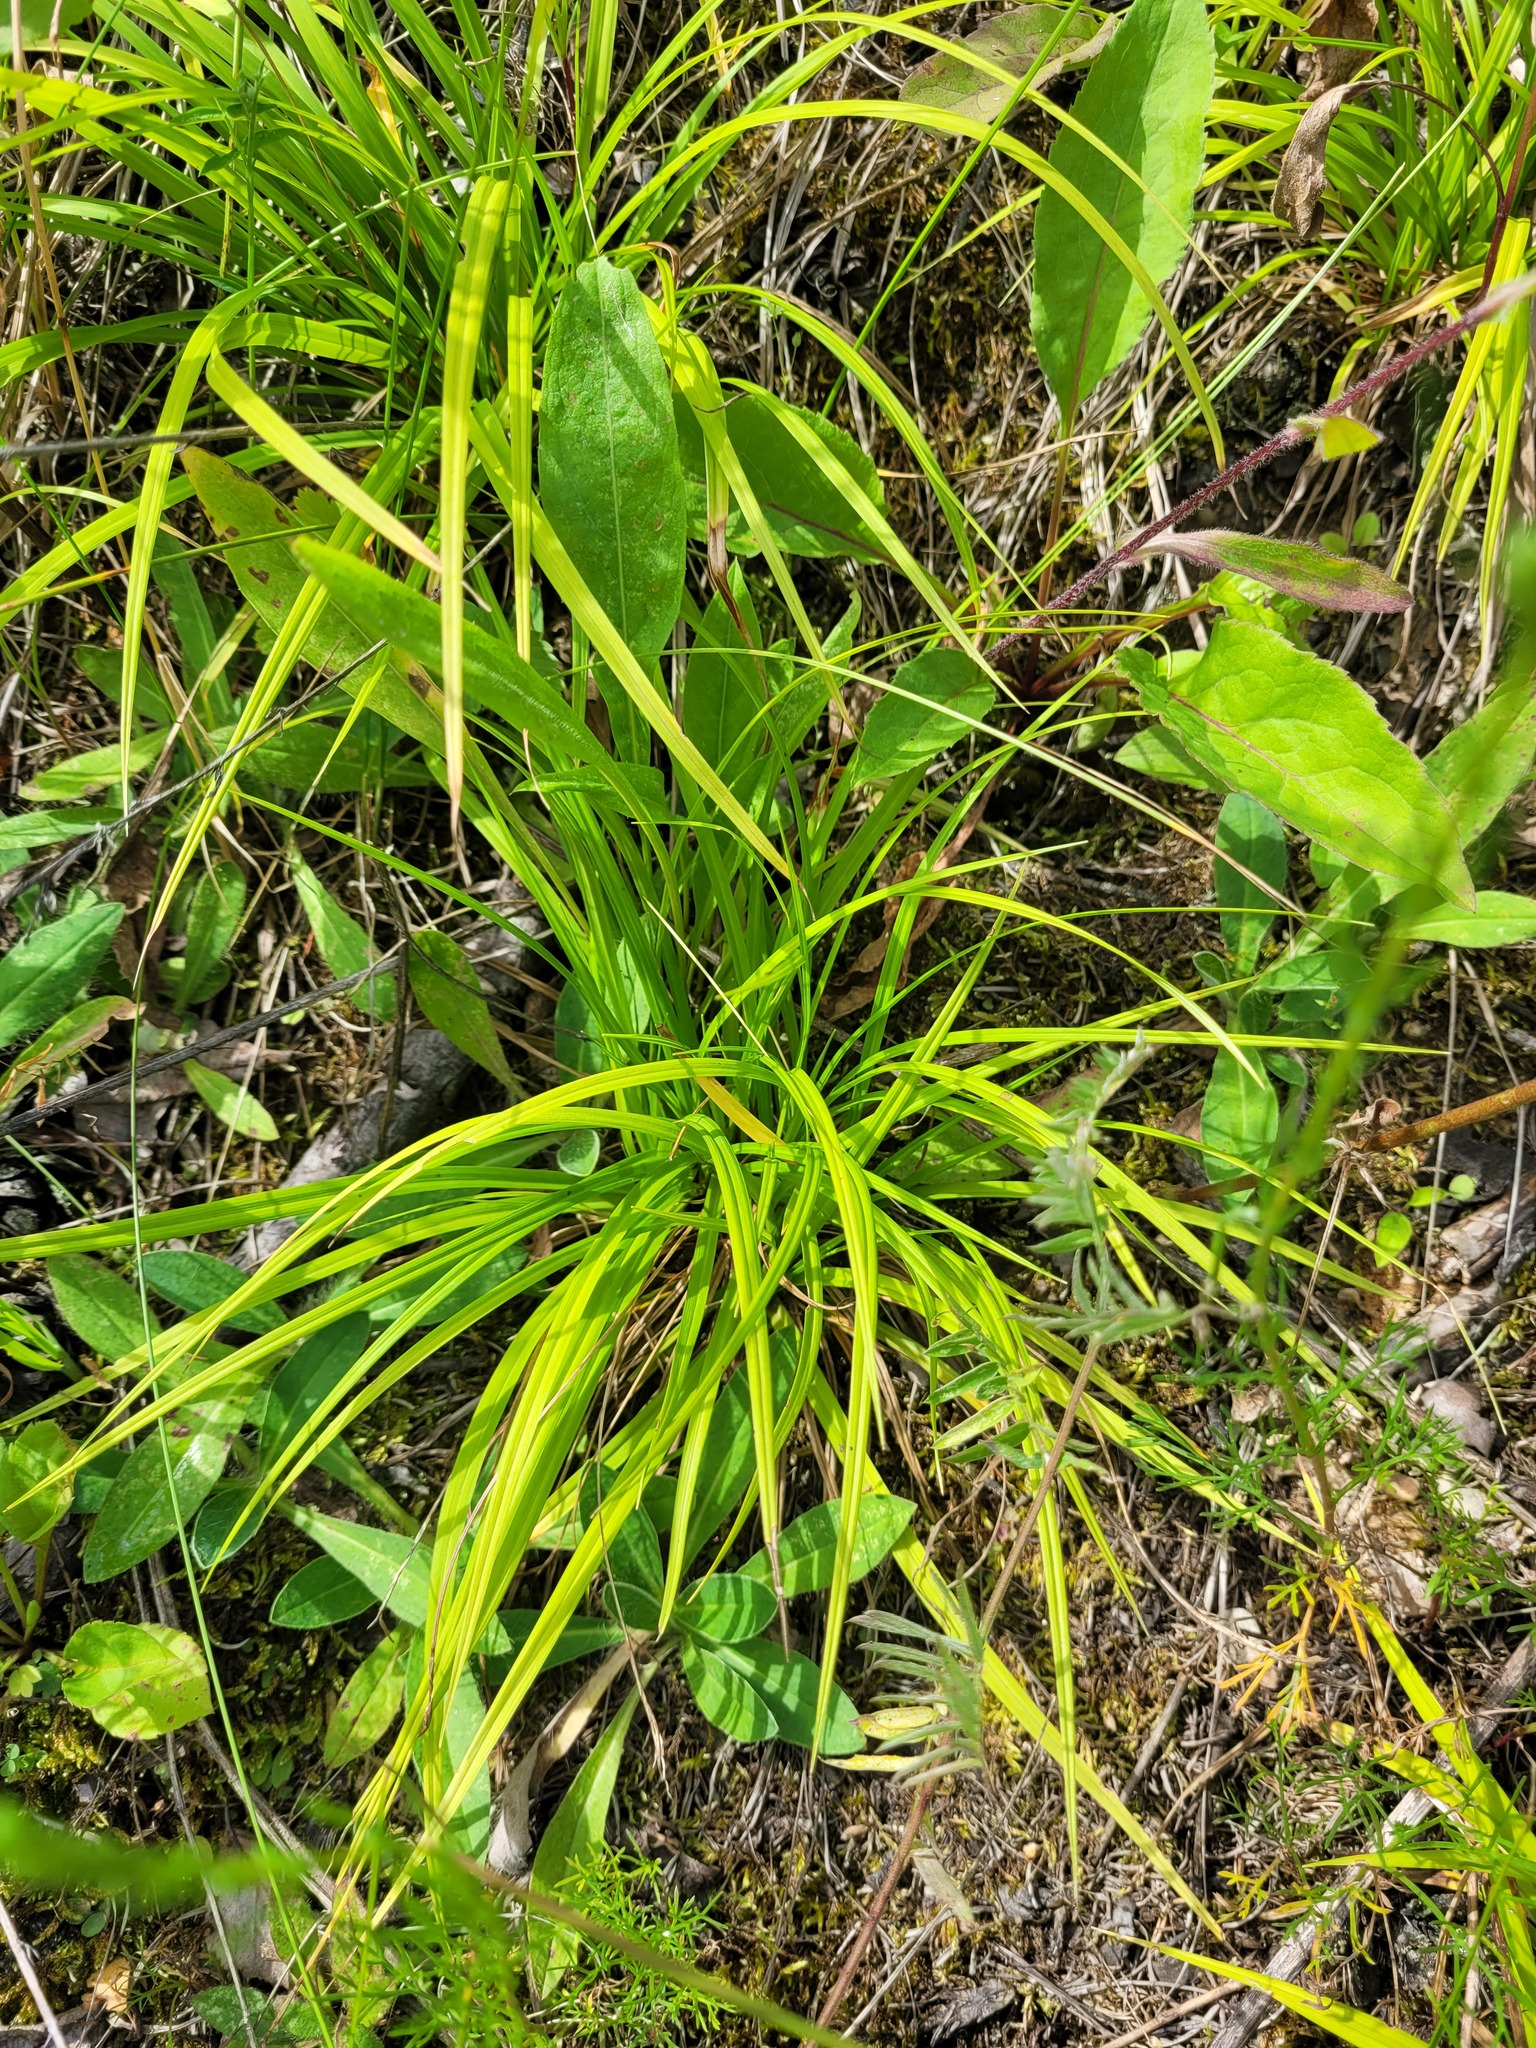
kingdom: Plantae
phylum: Tracheophyta
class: Liliopsida
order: Poales
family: Cyperaceae
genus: Carex
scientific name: Carex digitata
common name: Fingered sedge
